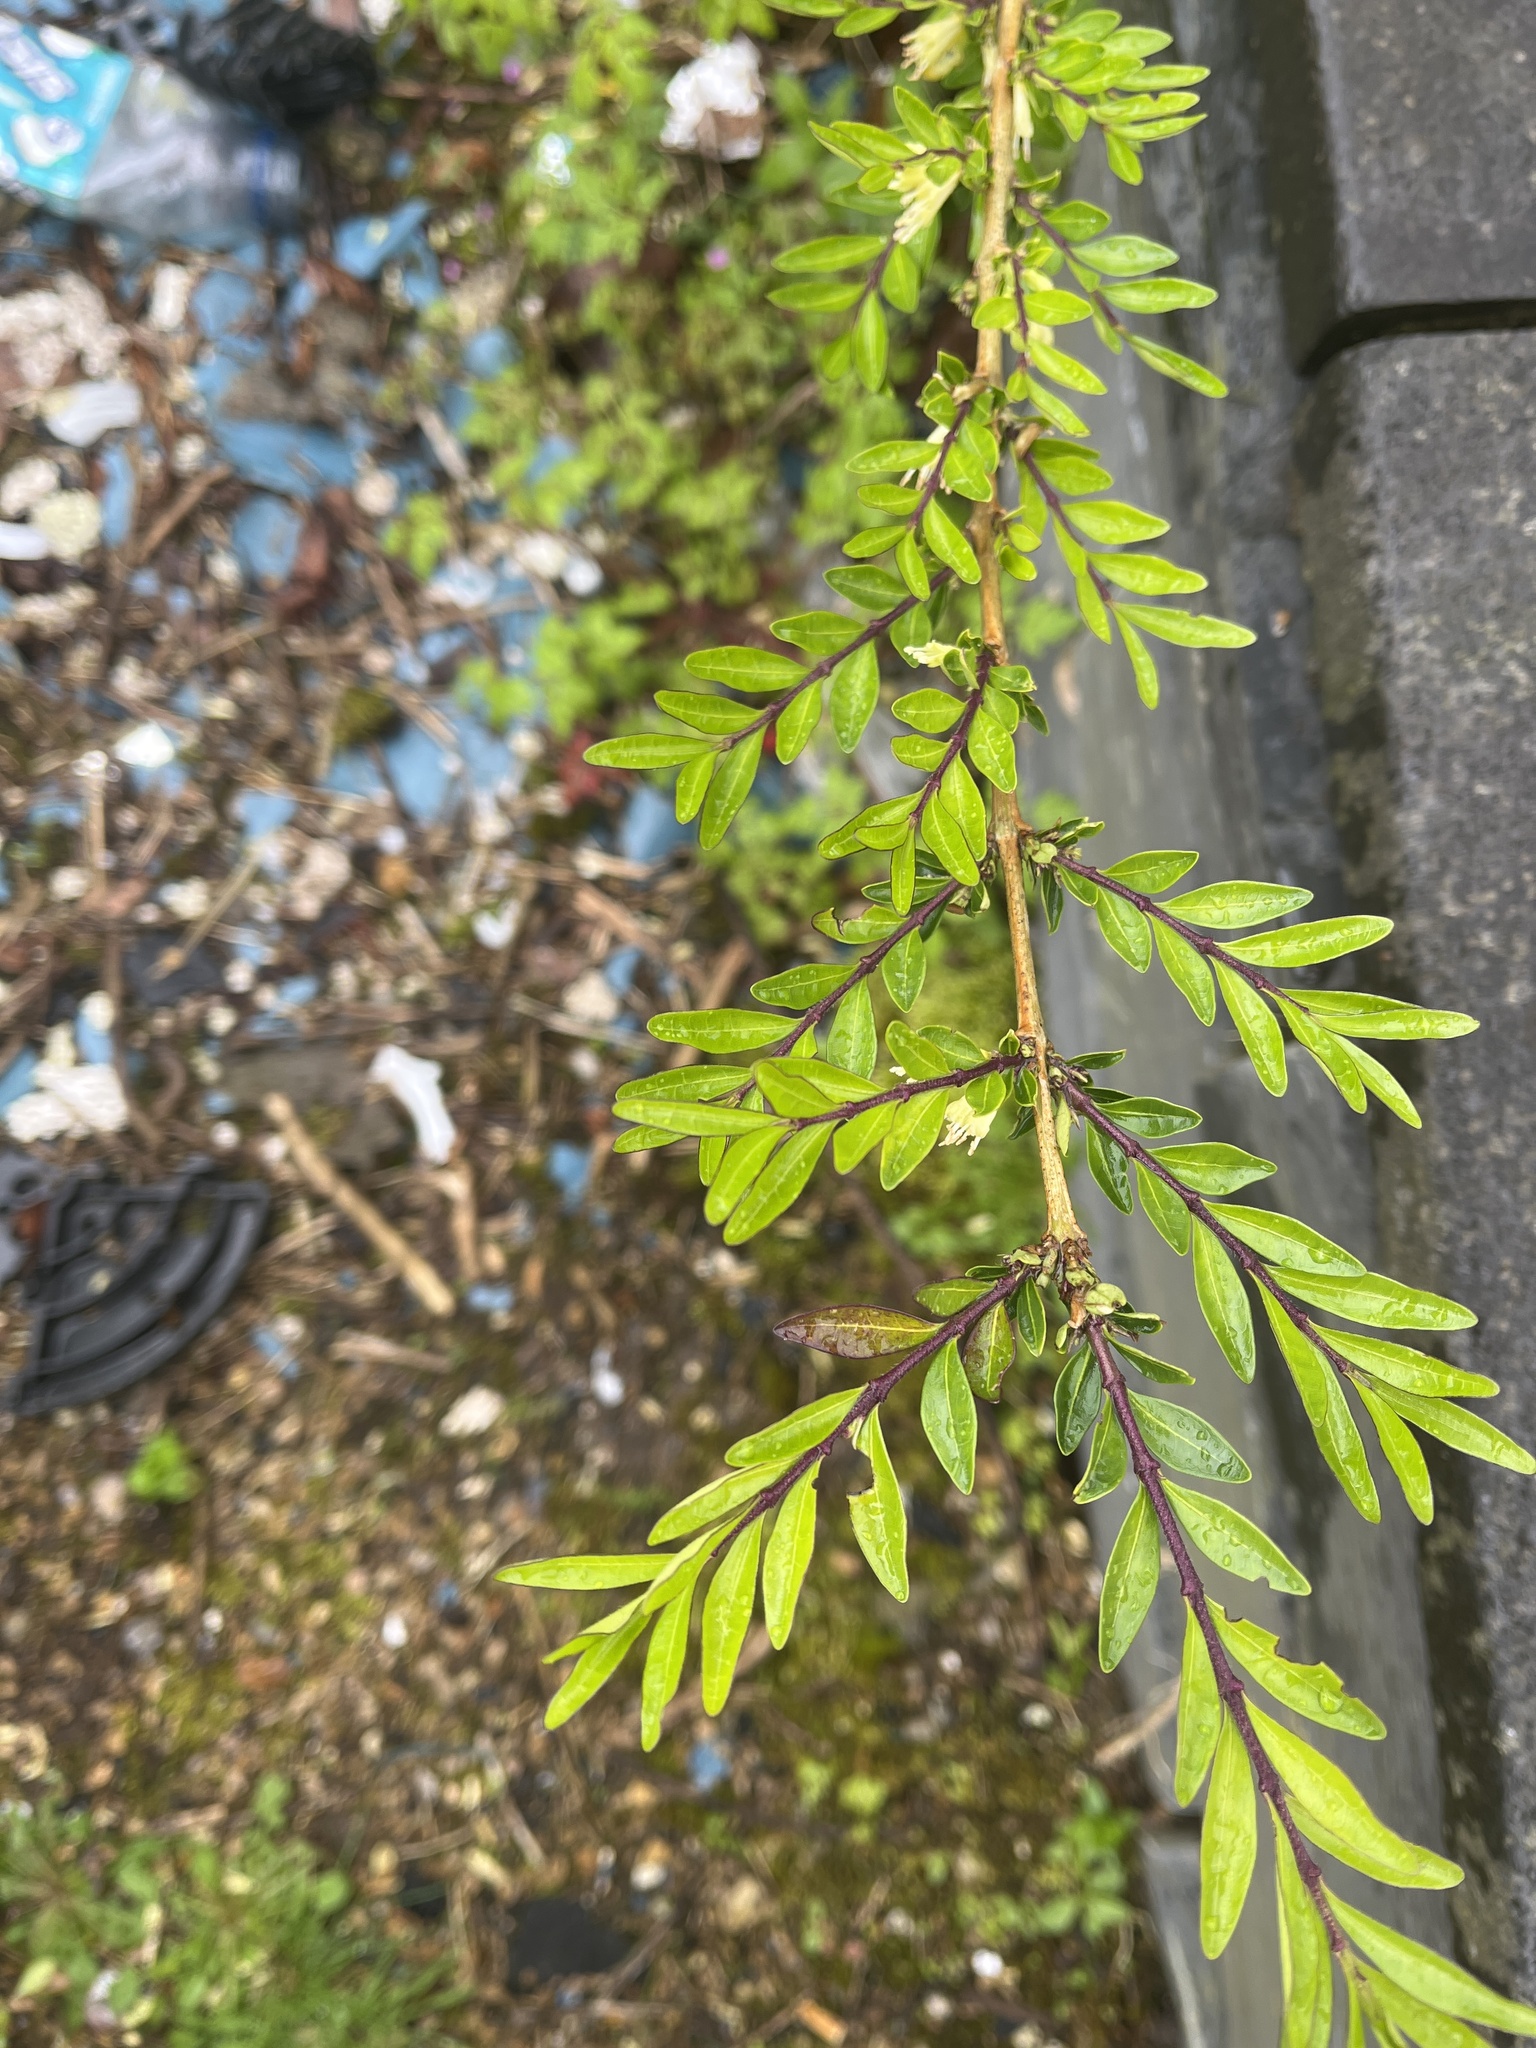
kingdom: Plantae
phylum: Tracheophyta
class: Magnoliopsida
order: Dipsacales
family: Caprifoliaceae
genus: Lonicera
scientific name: Lonicera ligustrina
